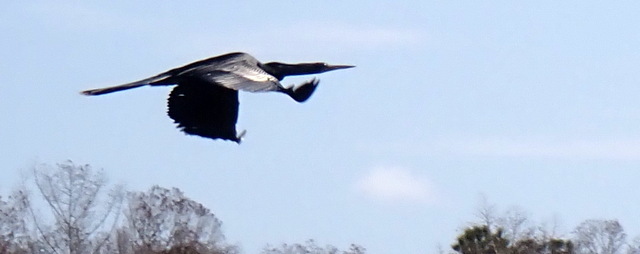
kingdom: Animalia
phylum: Chordata
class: Aves
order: Suliformes
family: Anhingidae
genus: Anhinga
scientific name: Anhinga anhinga
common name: Anhinga
